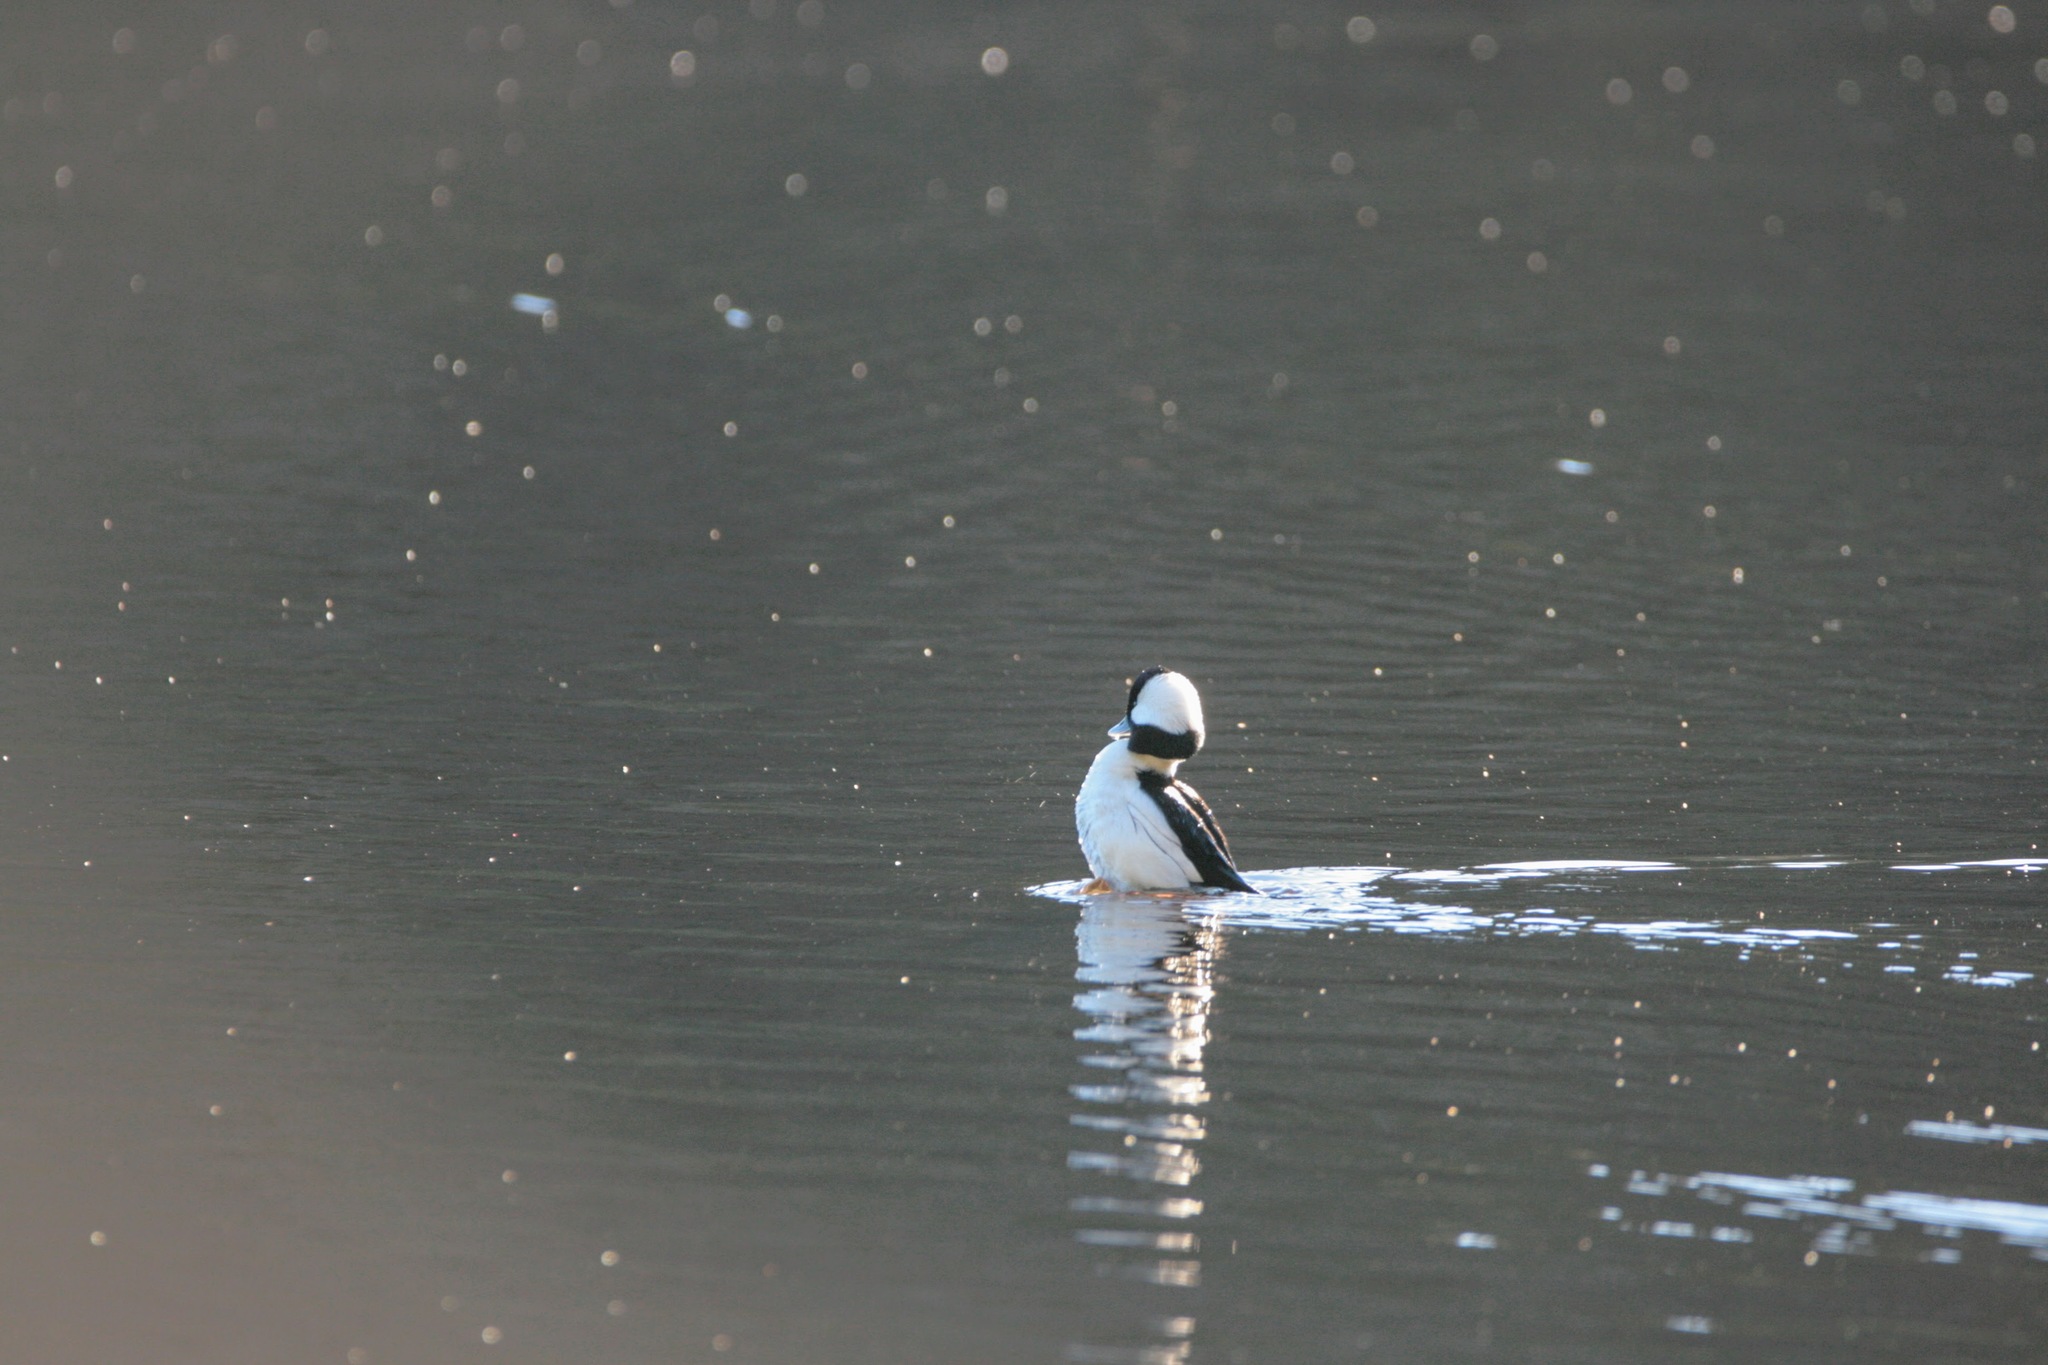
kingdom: Animalia
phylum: Chordata
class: Aves
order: Anseriformes
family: Anatidae
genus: Bucephala
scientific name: Bucephala albeola
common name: Bufflehead
